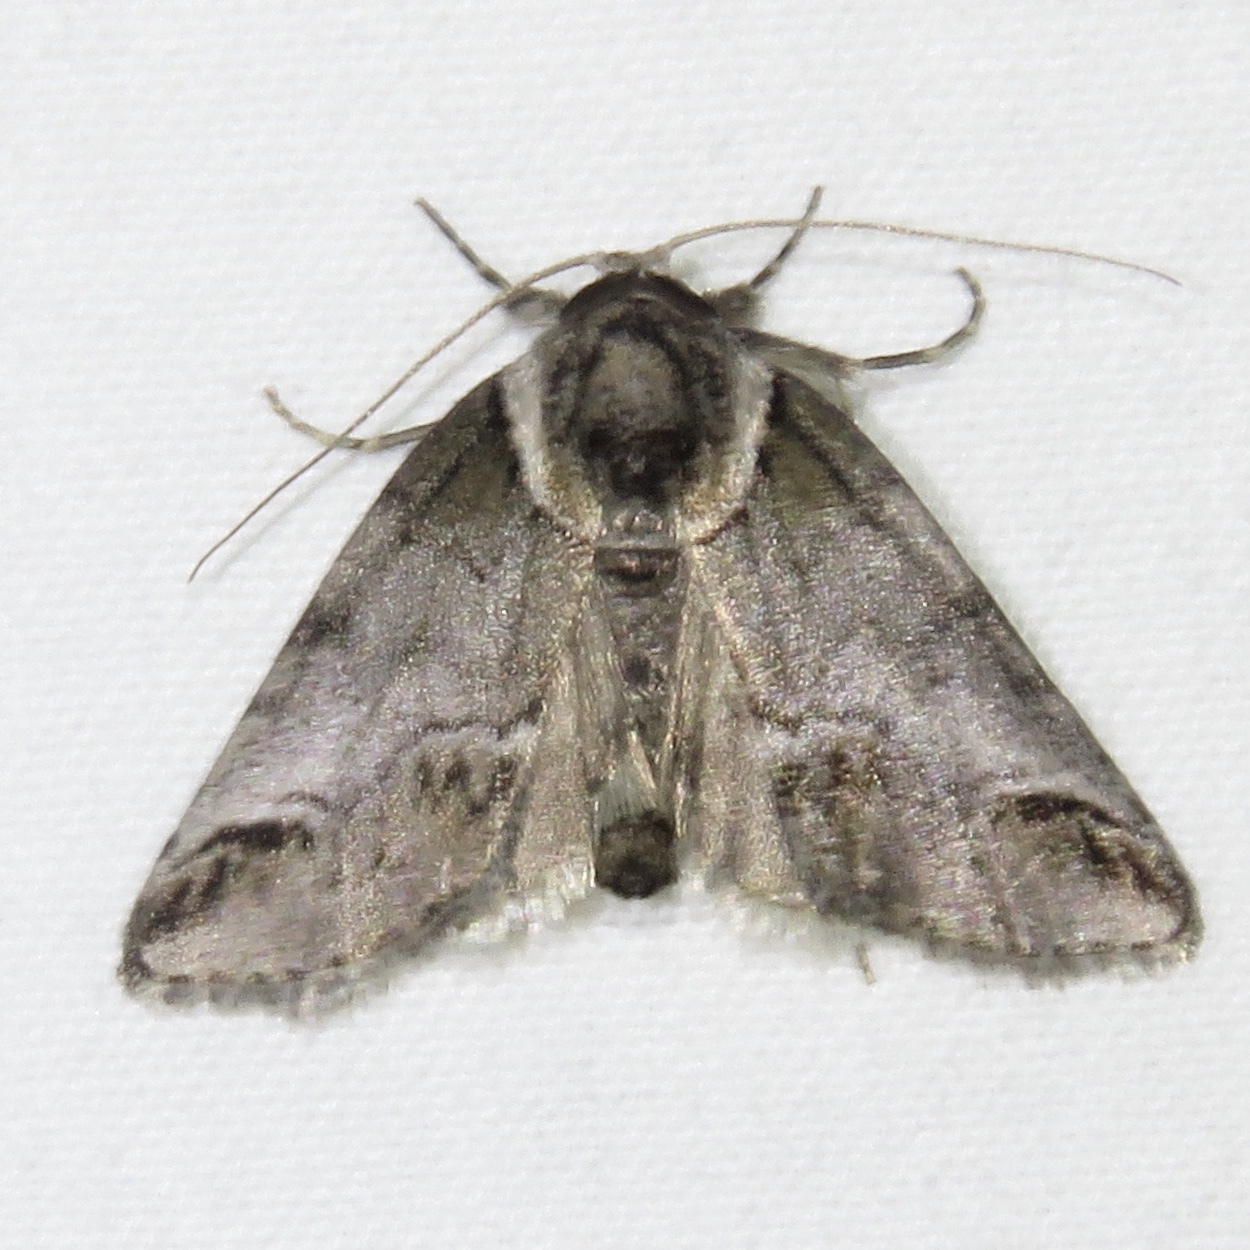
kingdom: Animalia
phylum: Arthropoda
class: Insecta
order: Lepidoptera
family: Nolidae
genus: Baileya
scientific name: Baileya australis
